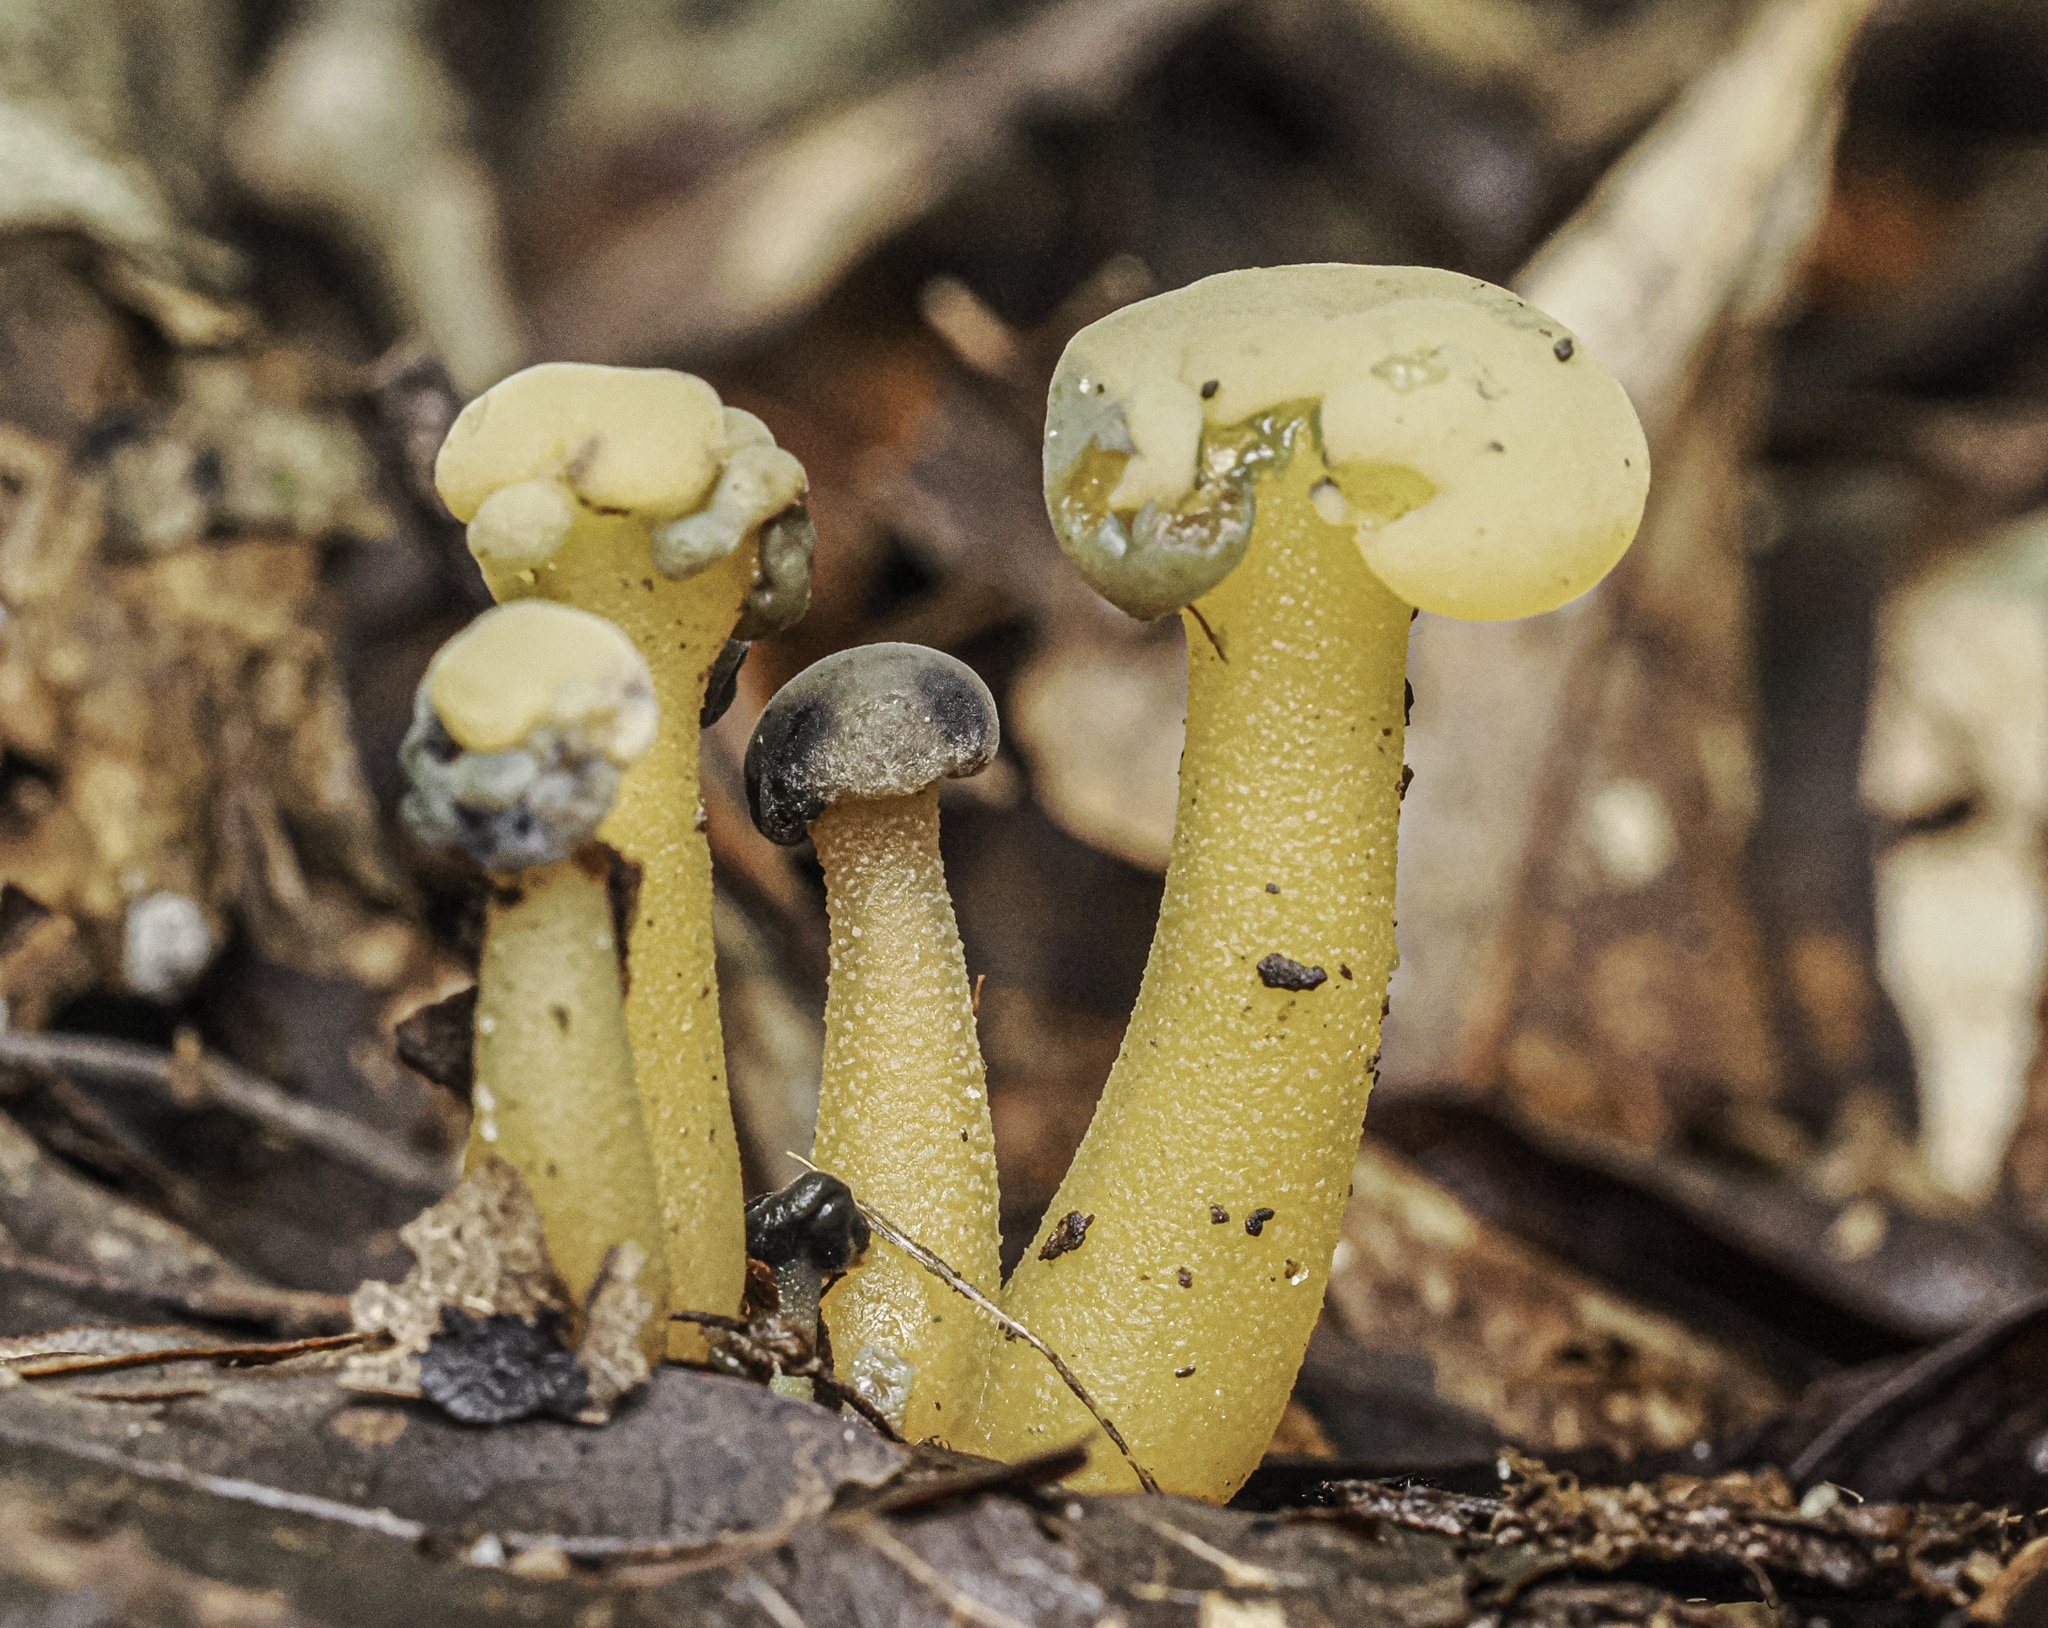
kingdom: Fungi
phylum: Ascomycota
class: Leotiomycetes
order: Leotiales
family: Leotiaceae
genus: Leotia
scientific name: Leotia lubrica
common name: Jellybaby
